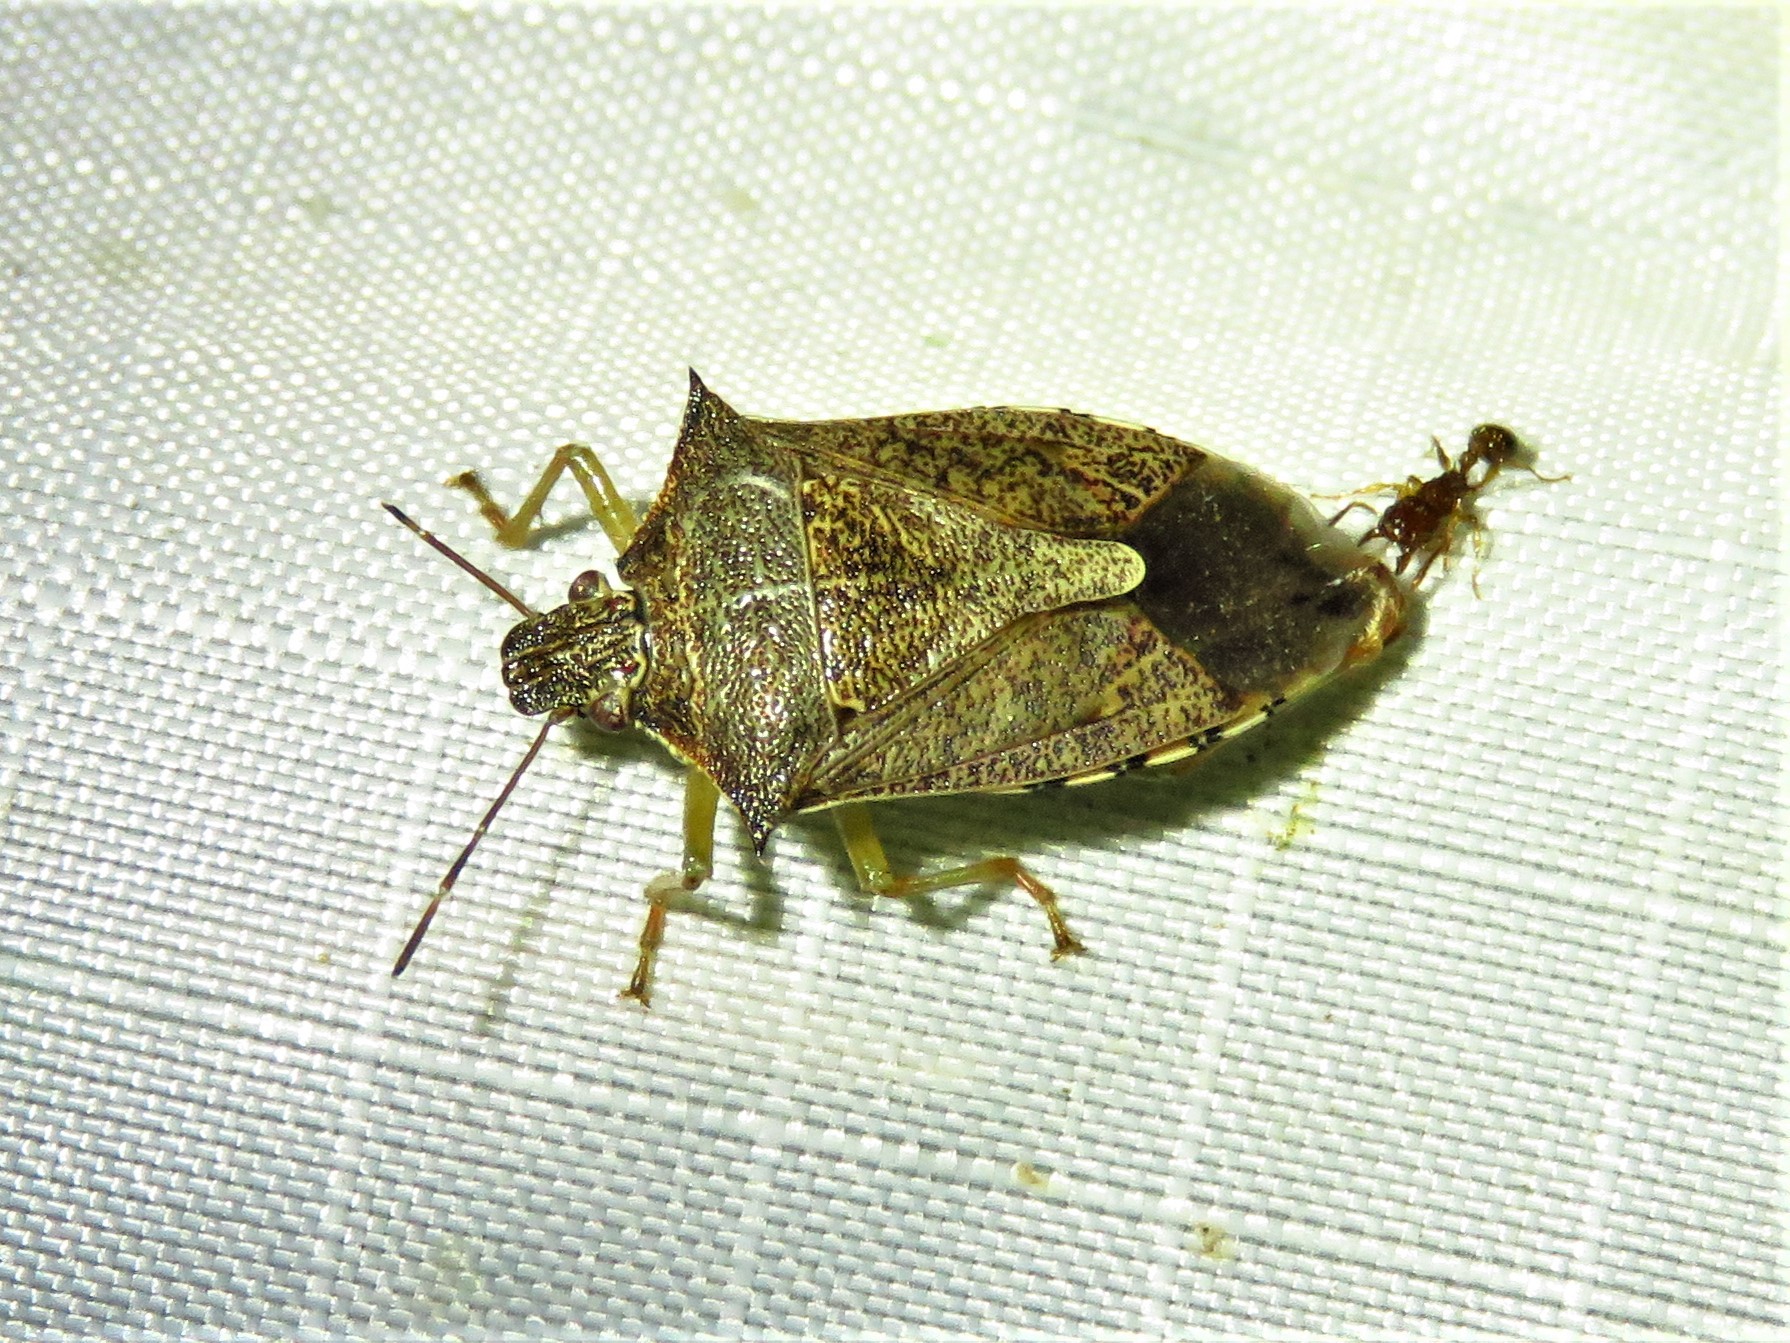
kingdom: Animalia
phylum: Arthropoda
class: Insecta
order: Hemiptera
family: Pentatomidae
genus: Podisus
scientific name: Podisus maculiventris
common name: Spined soldier bug
